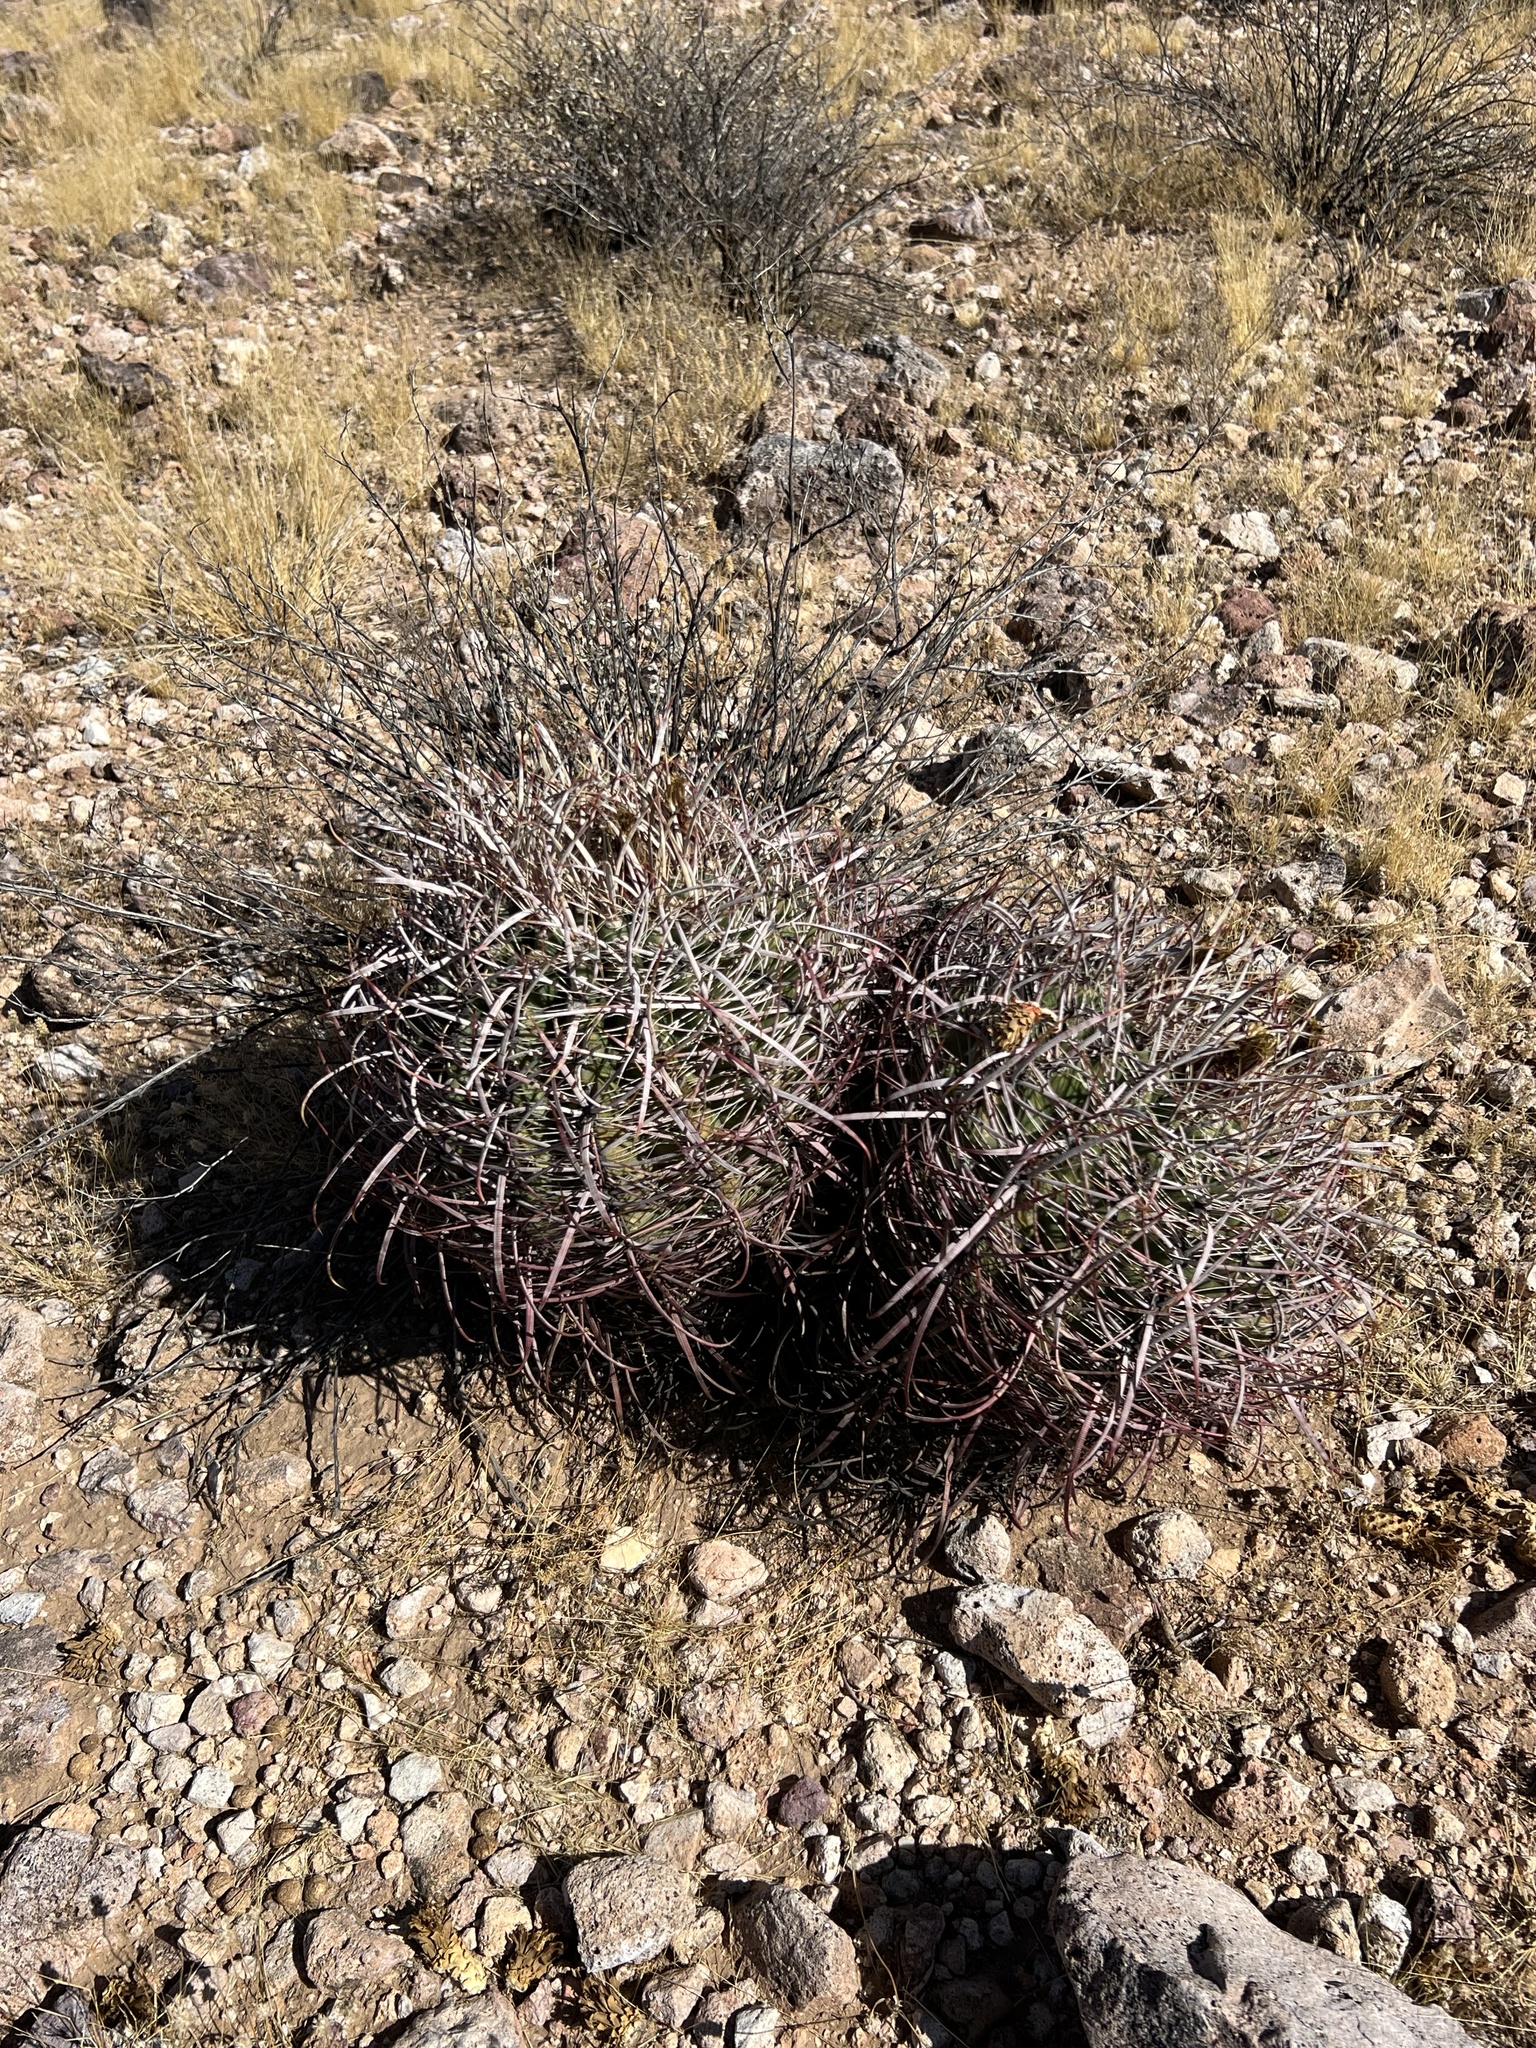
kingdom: Plantae
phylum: Tracheophyta
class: Magnoliopsida
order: Caryophyllales
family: Cactaceae
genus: Ferocactus
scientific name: Ferocactus cylindraceus
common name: California barrel cactus
